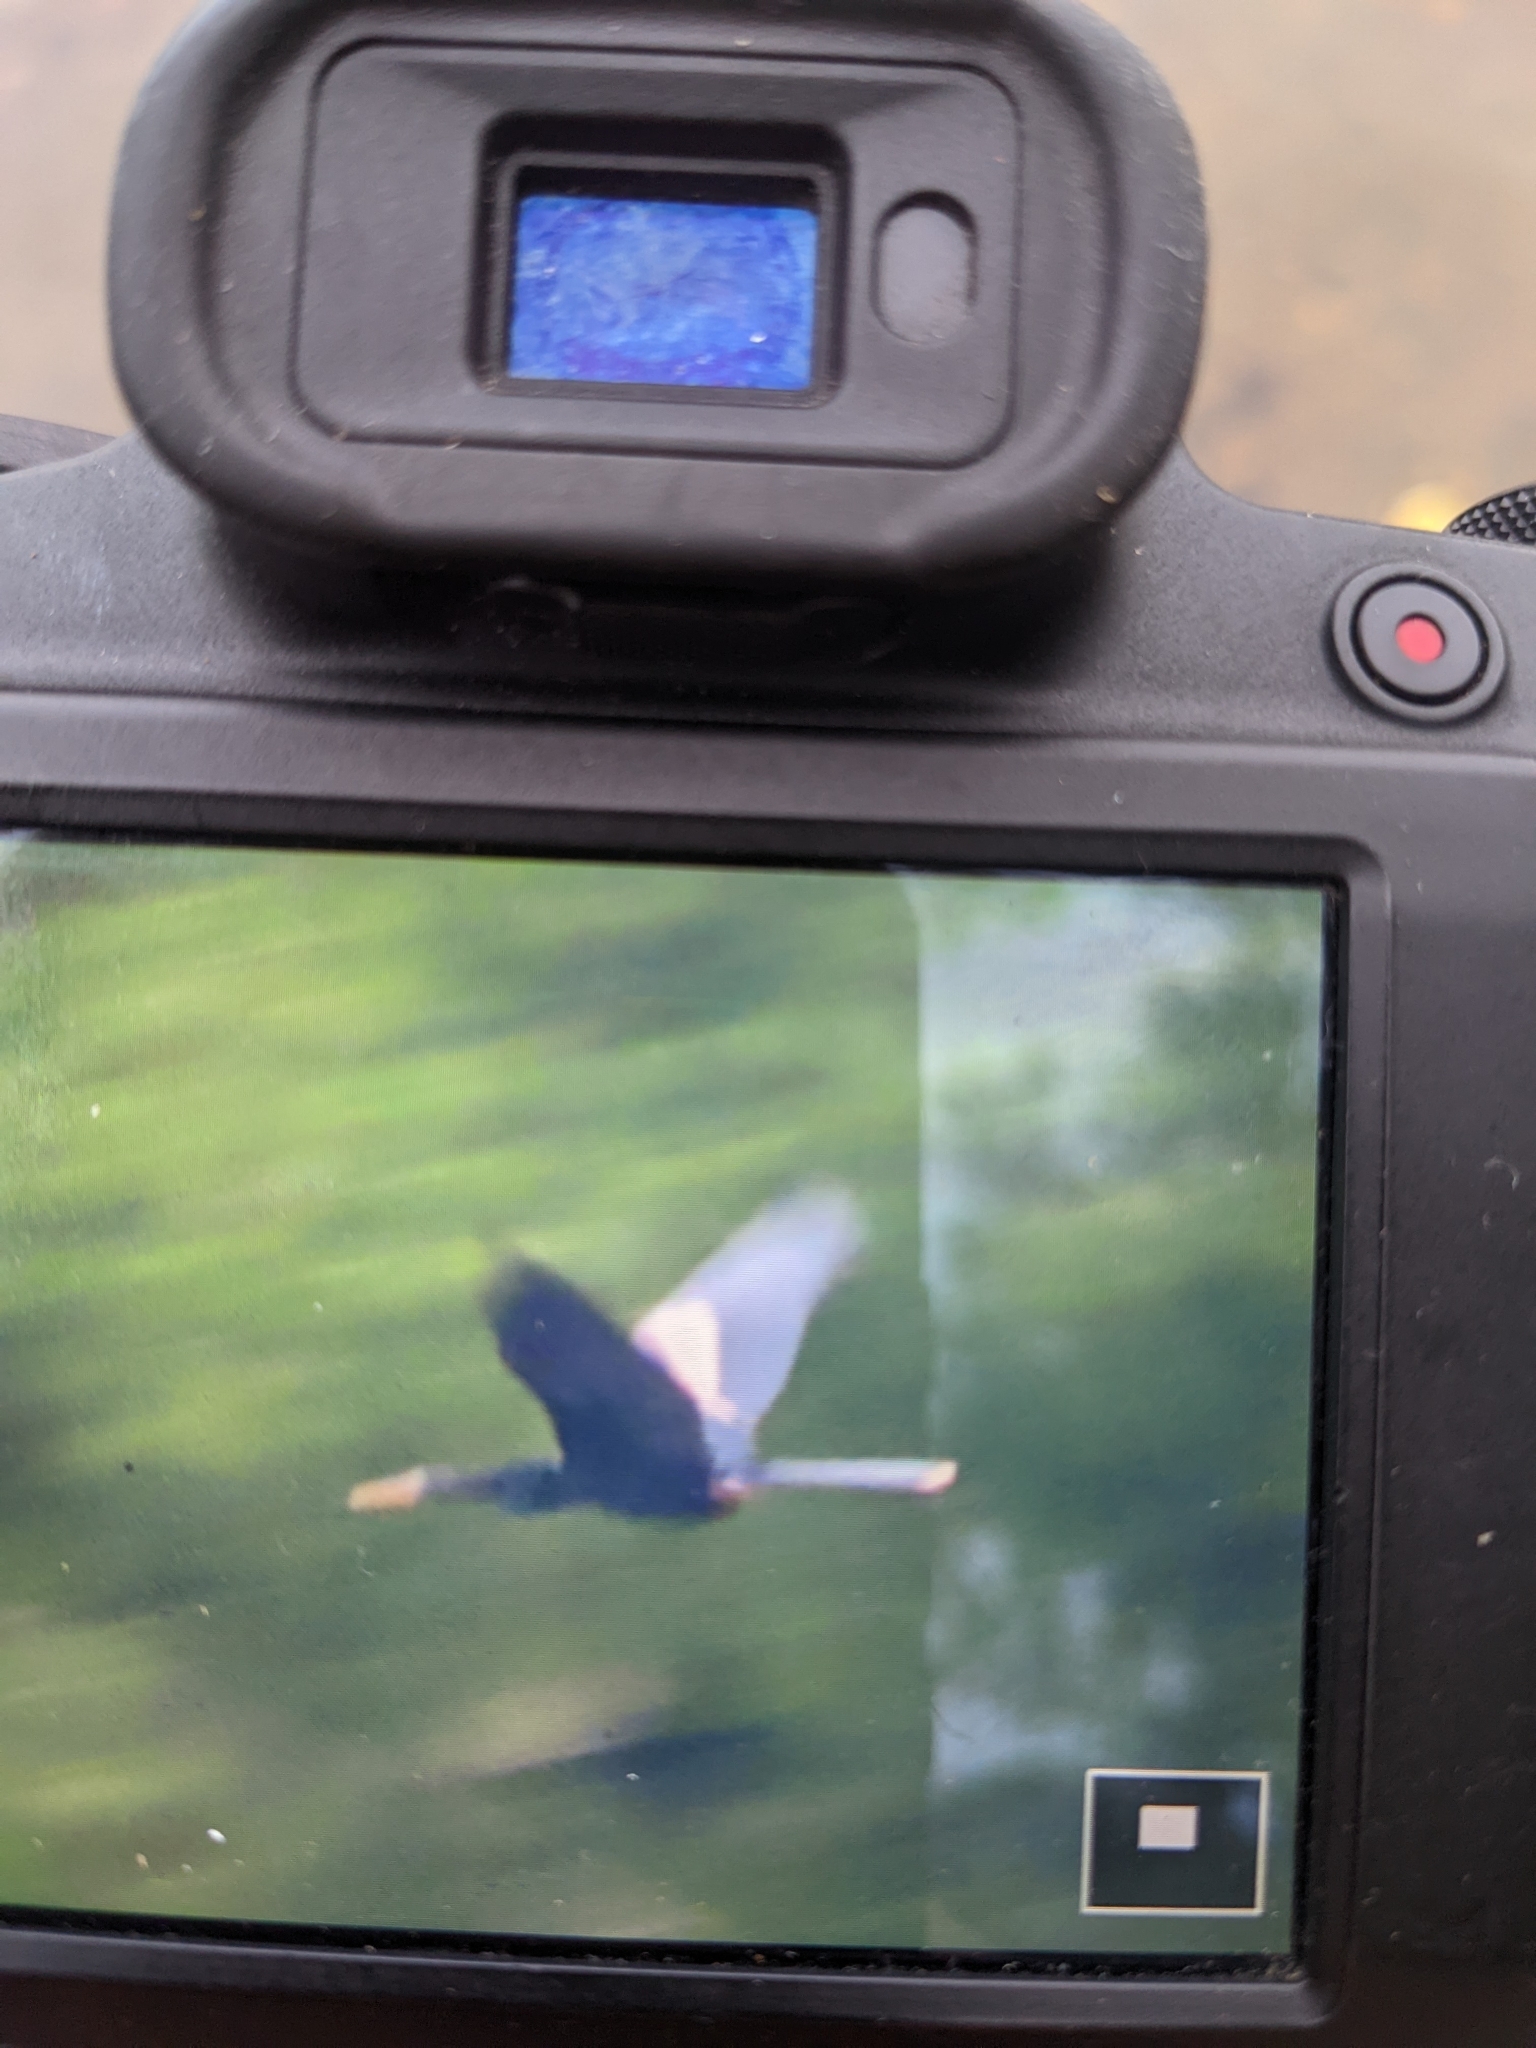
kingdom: Animalia
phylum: Chordata
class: Aves
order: Suliformes
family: Anhingidae
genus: Anhinga
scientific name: Anhinga anhinga
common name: Anhinga
